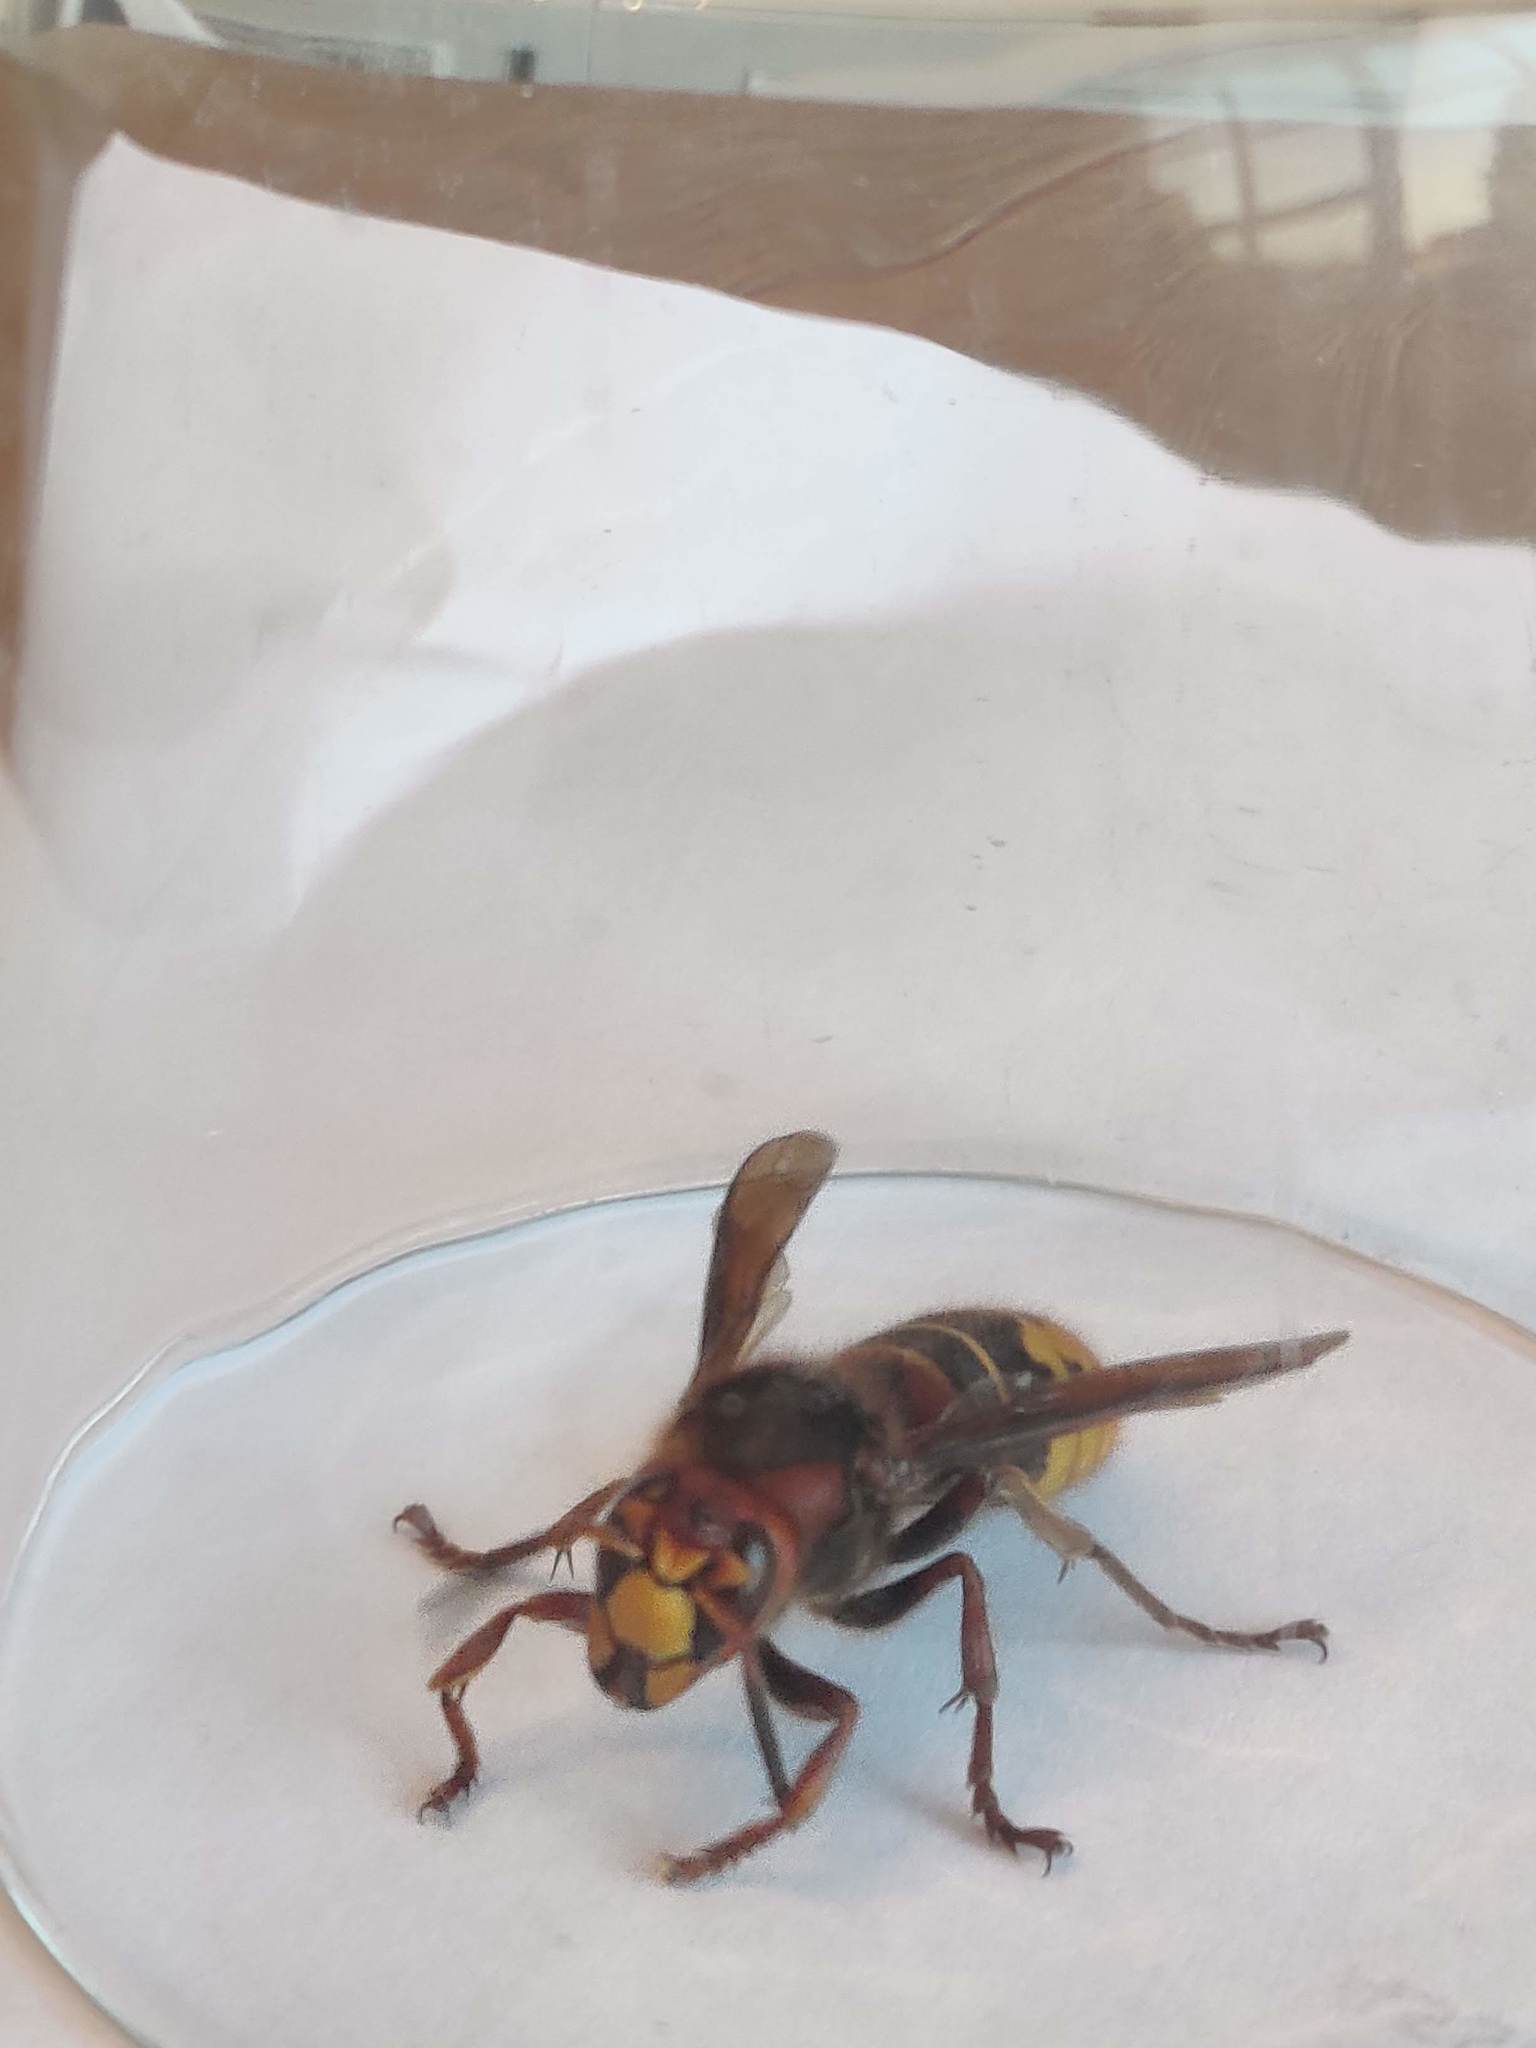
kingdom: Animalia
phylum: Arthropoda
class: Insecta
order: Hymenoptera
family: Vespidae
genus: Vespa
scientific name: Vespa crabro
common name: Hornet
